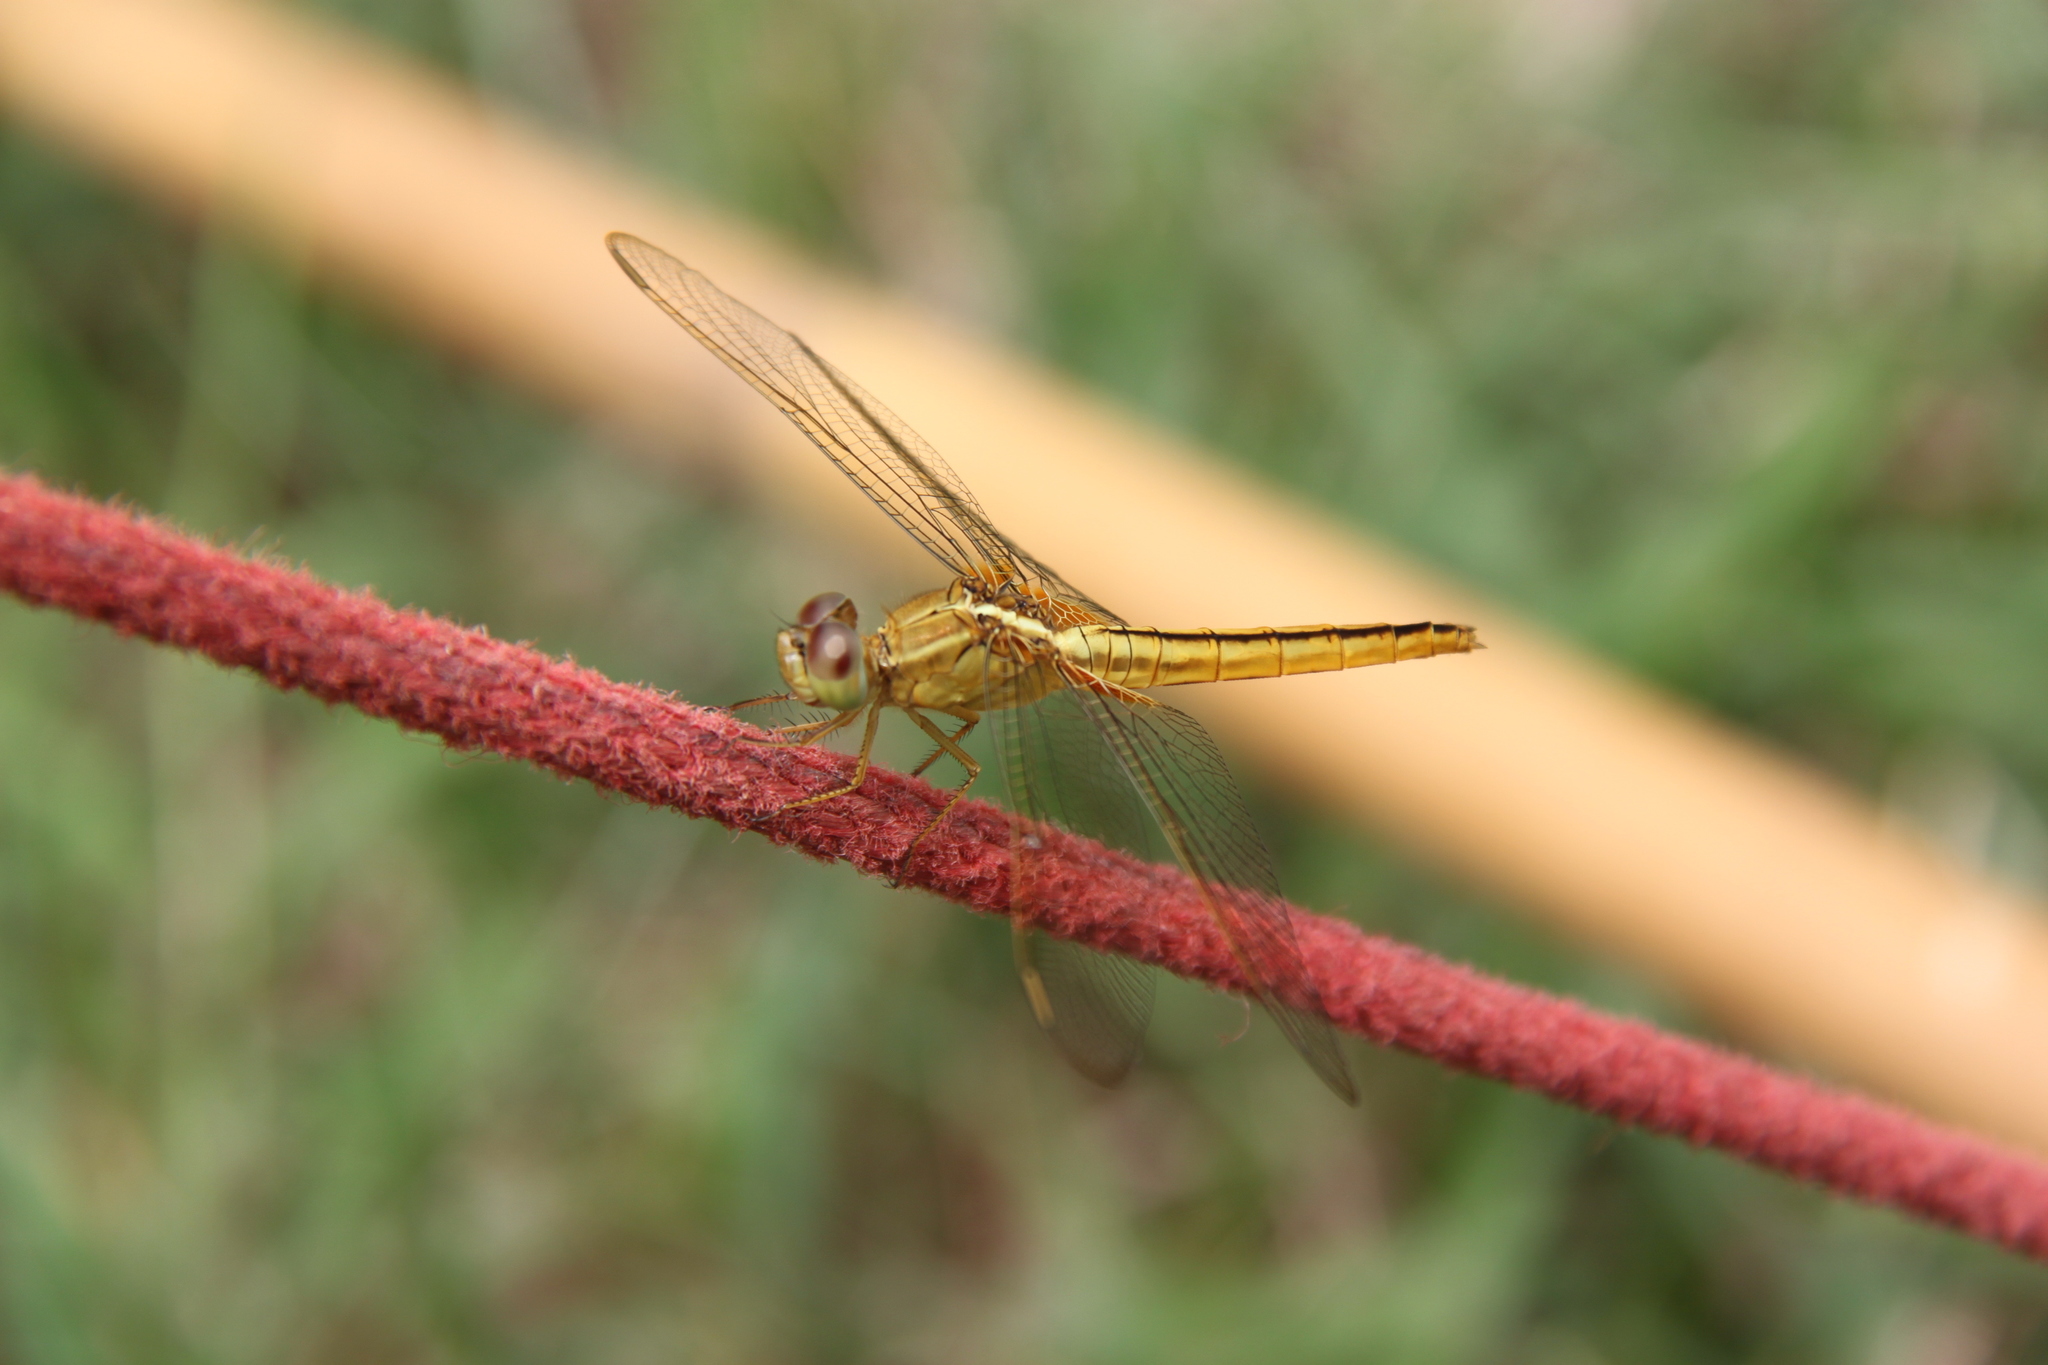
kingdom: Animalia
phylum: Arthropoda
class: Insecta
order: Odonata
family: Libellulidae
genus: Crocothemis
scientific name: Crocothemis servilia
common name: Scarlet skimmer
